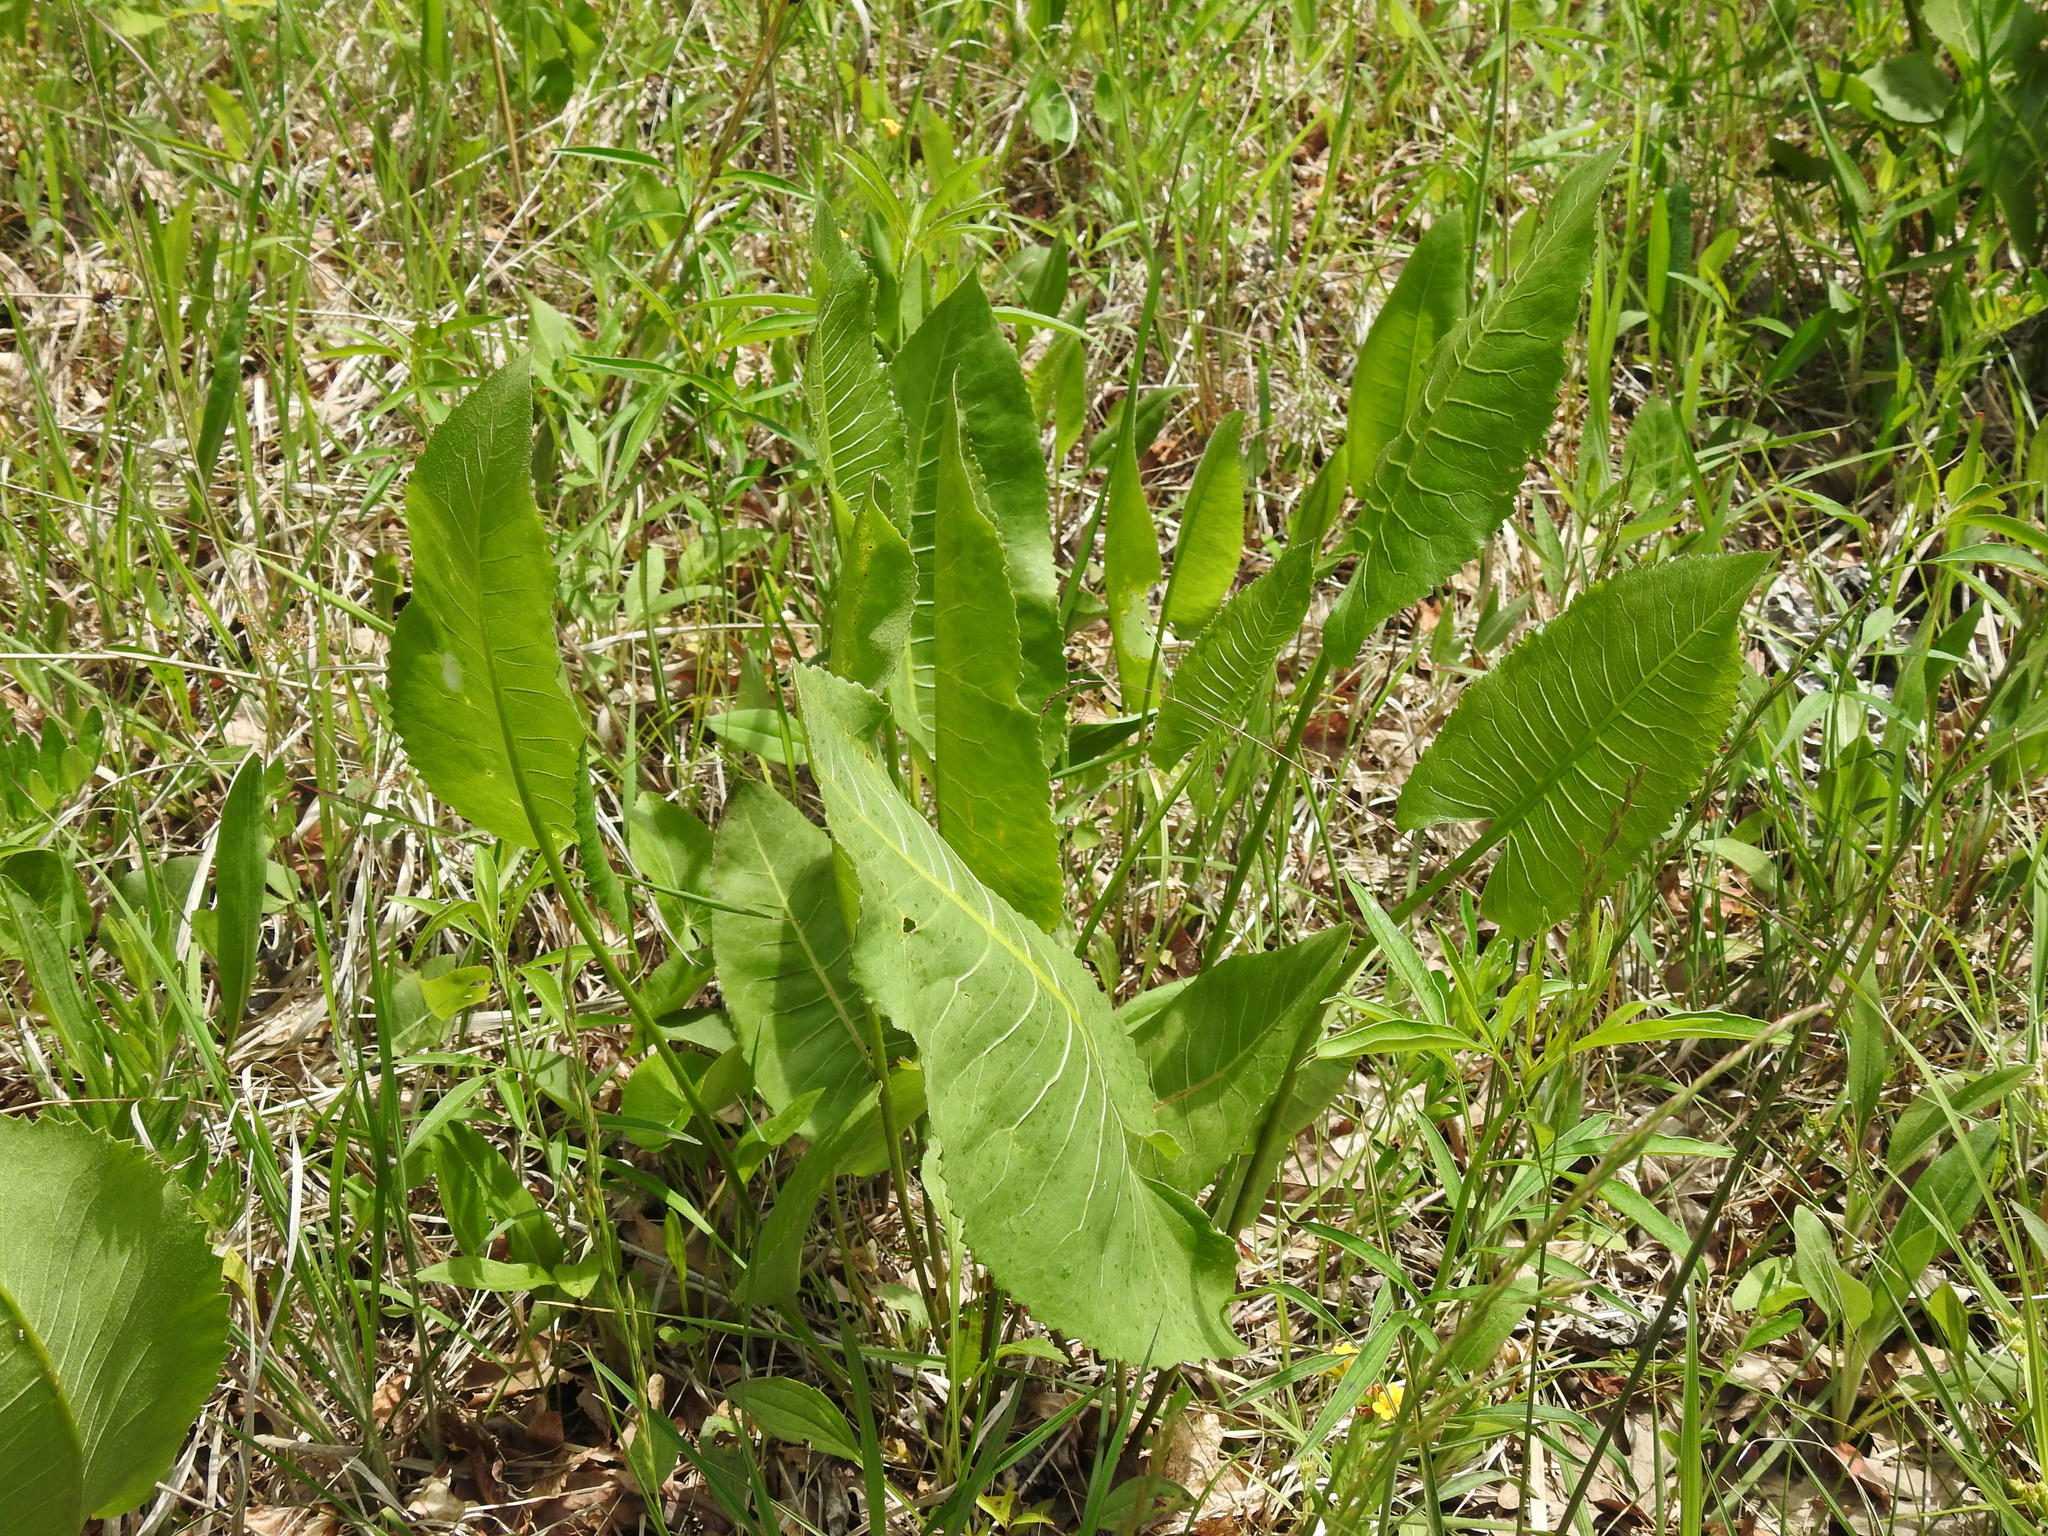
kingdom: Plantae
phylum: Tracheophyta
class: Magnoliopsida
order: Asterales
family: Asteraceae
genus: Silphium
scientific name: Silphium terebinthinaceum
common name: Basal-leaf rosinweed
